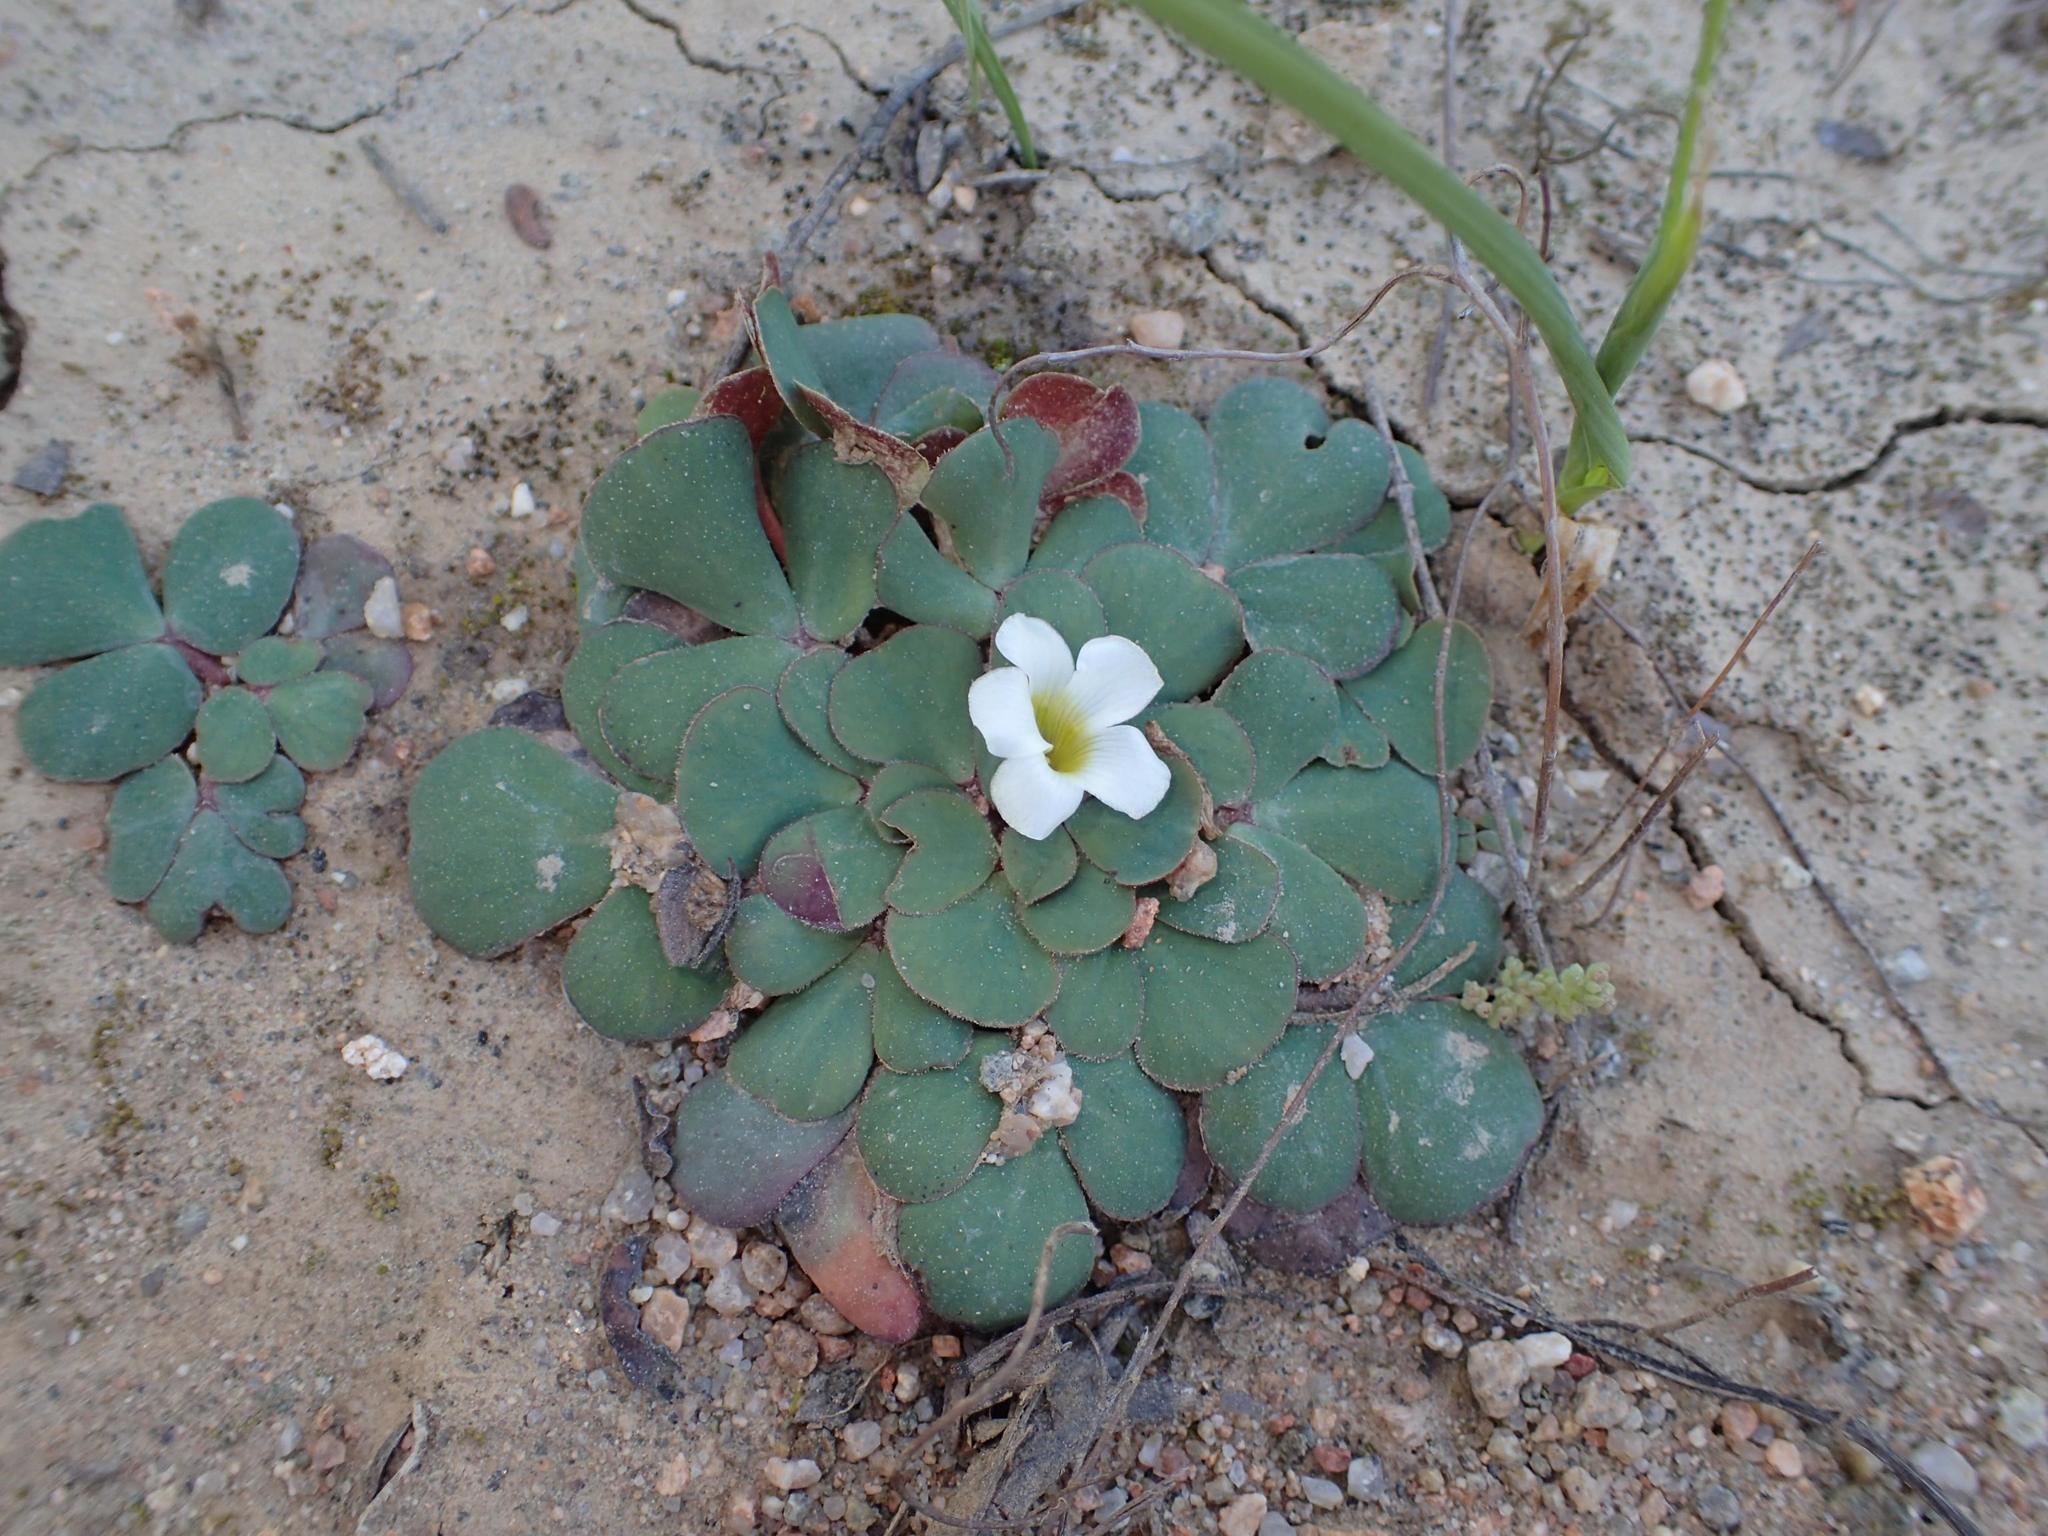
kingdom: Plantae
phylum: Tracheophyta
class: Magnoliopsida
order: Oxalidales
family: Oxalidaceae
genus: Oxalis
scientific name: Oxalis purpurea
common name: Purple woodsorrel
